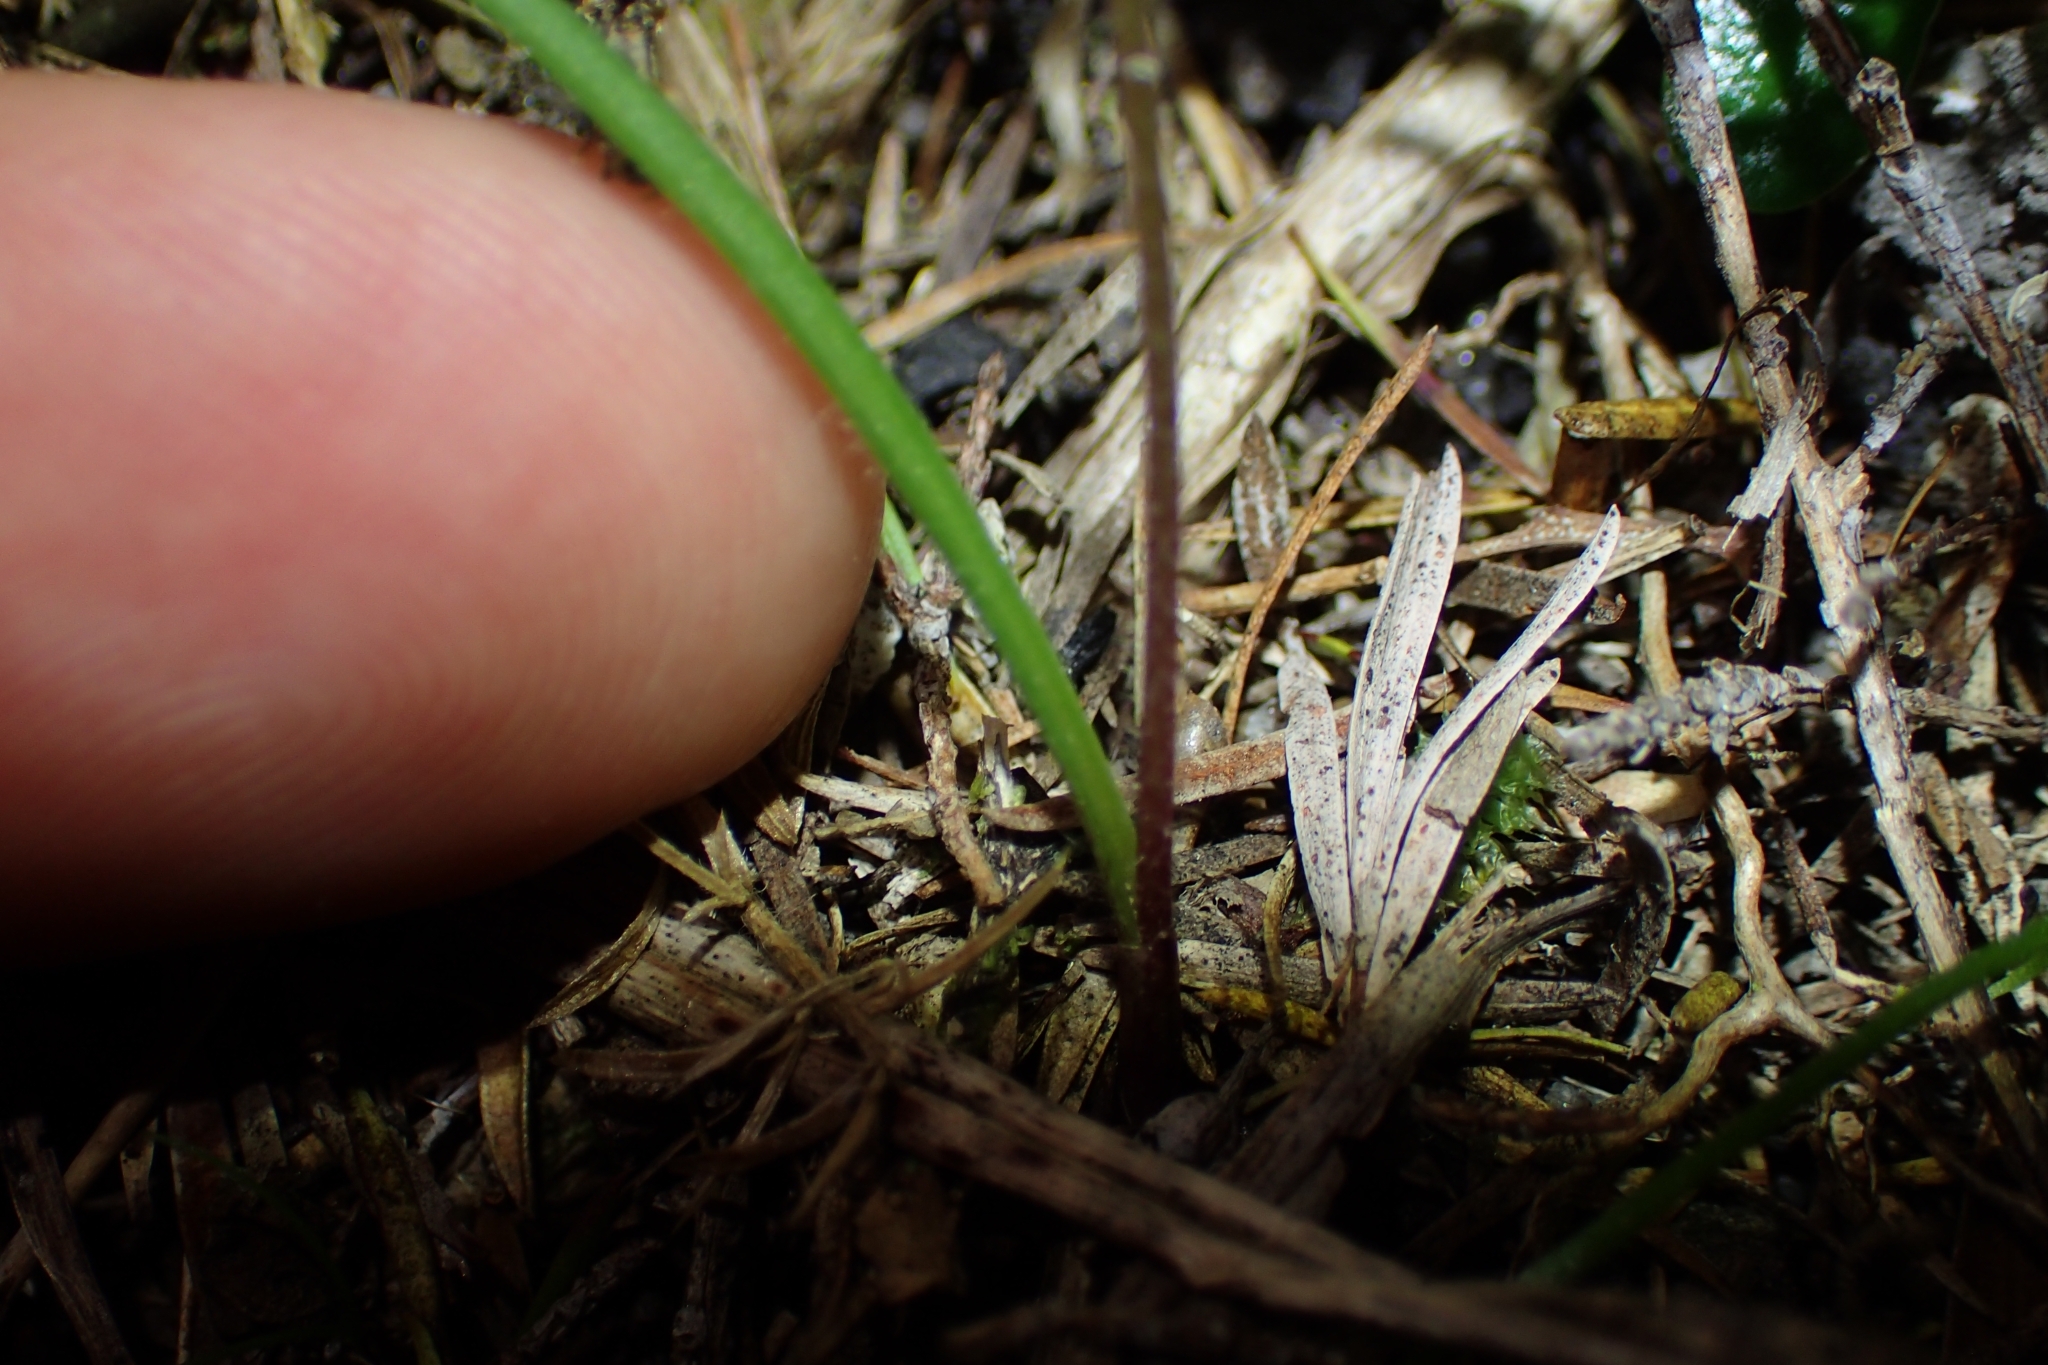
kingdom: Plantae
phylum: Tracheophyta
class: Liliopsida
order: Asparagales
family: Orchidaceae
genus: Caladenia
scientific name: Caladenia atradenia
